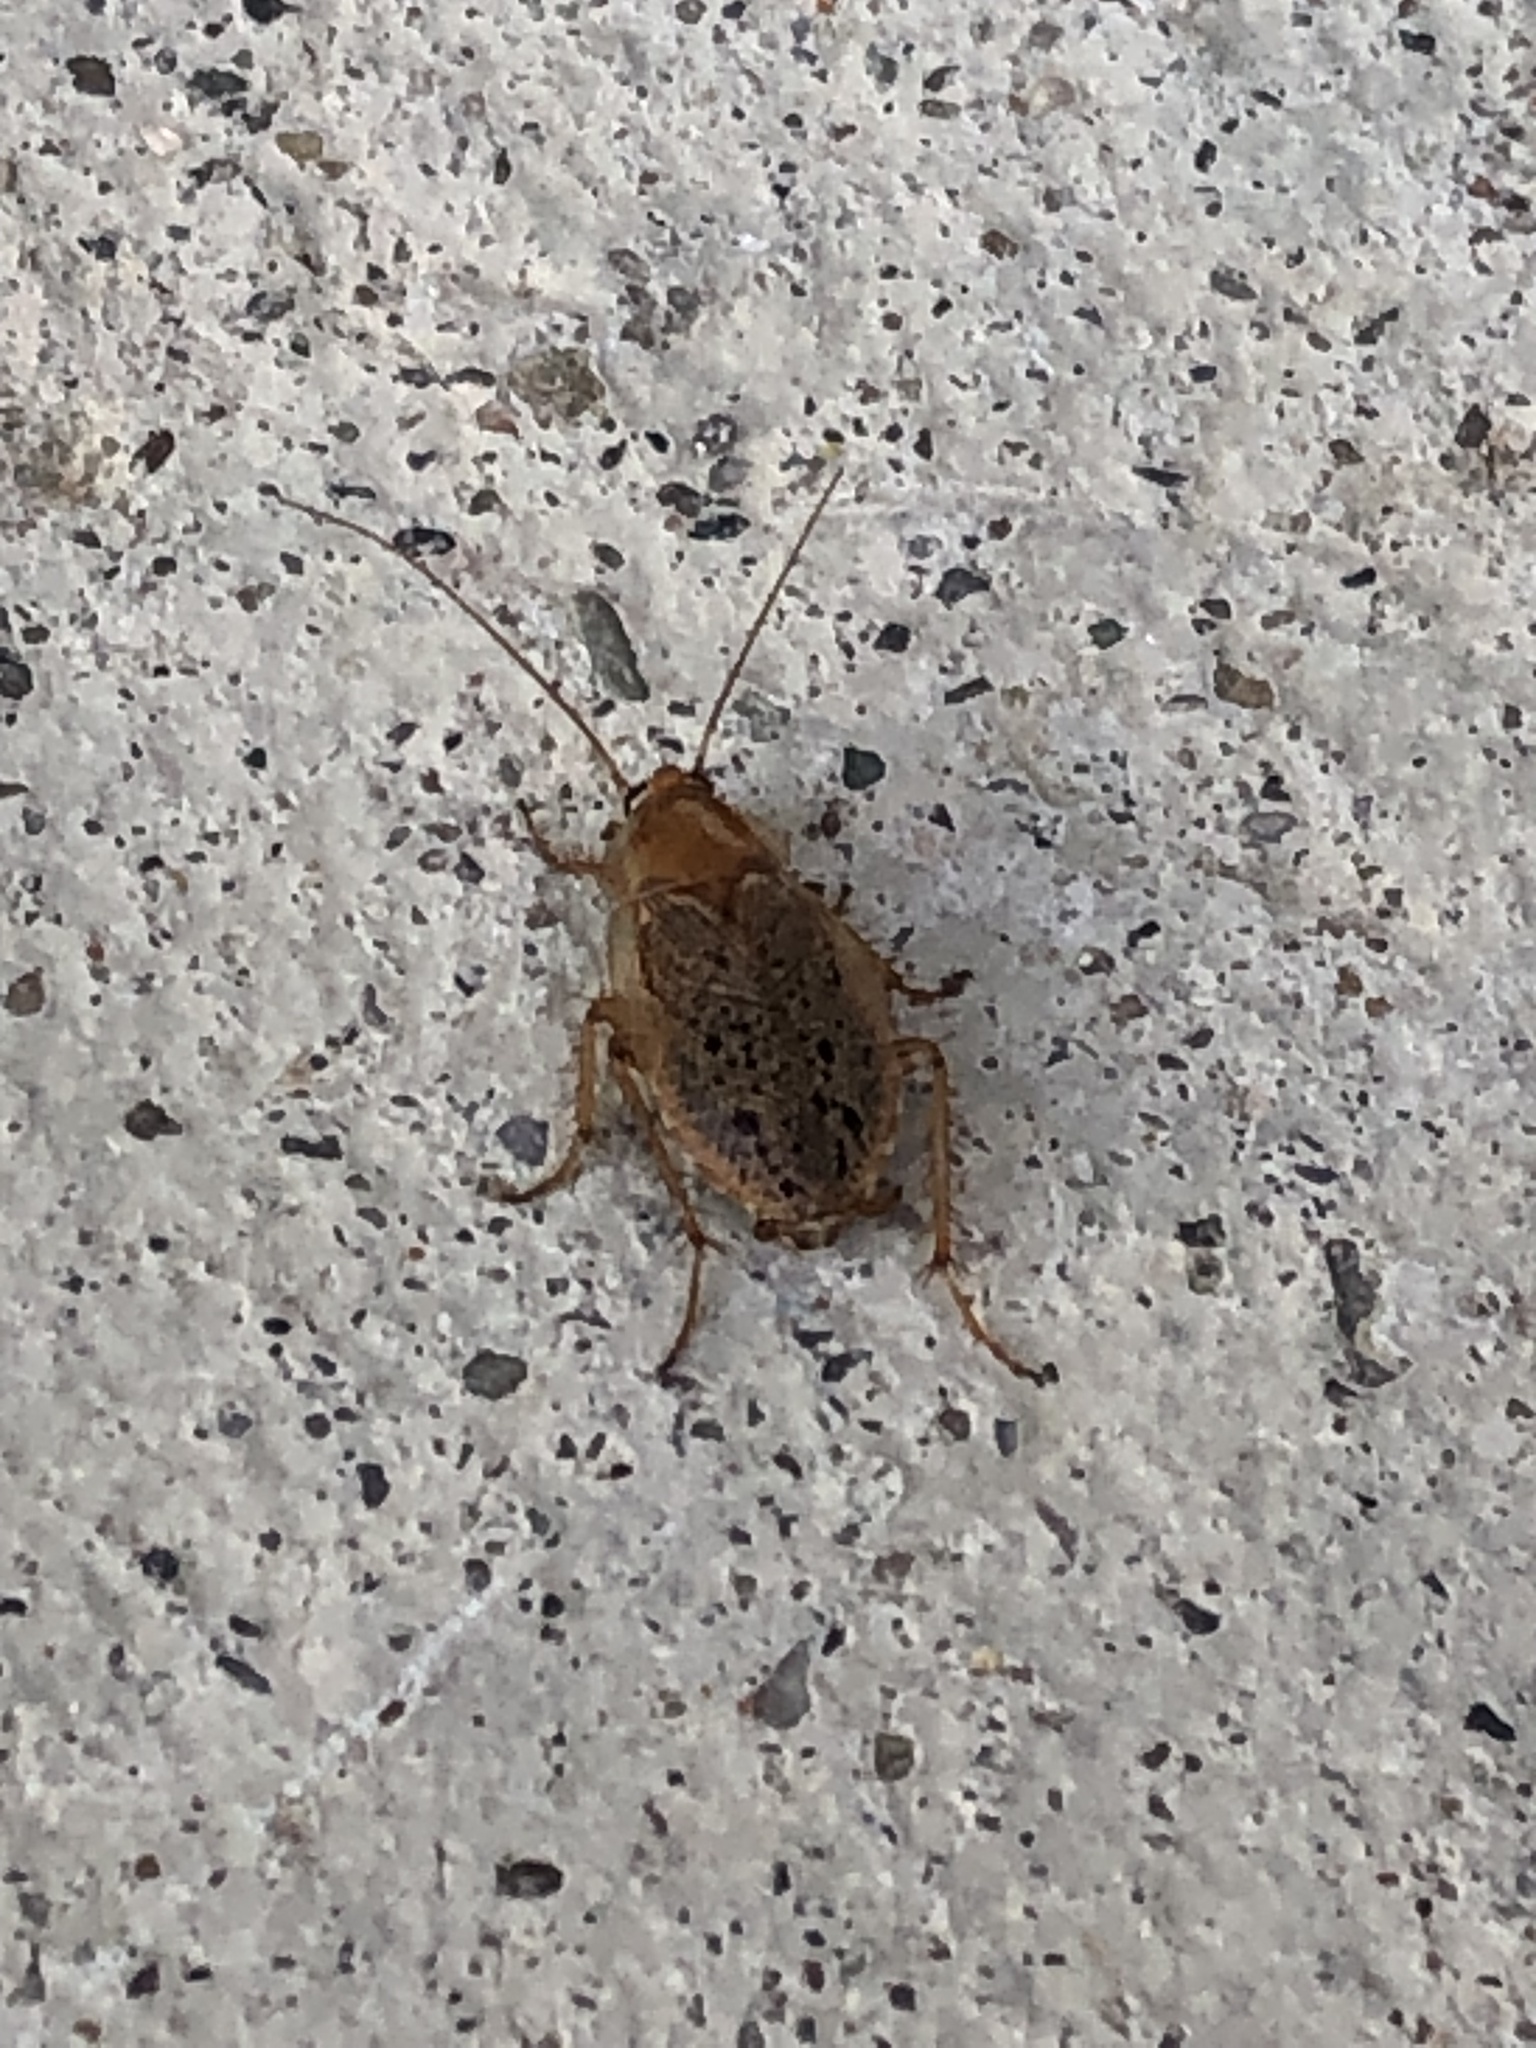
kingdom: Animalia
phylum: Arthropoda
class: Insecta
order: Blattodea
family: Ectobiidae
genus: Ectobius
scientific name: Ectobius lapponicus
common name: Dusky cockroach
